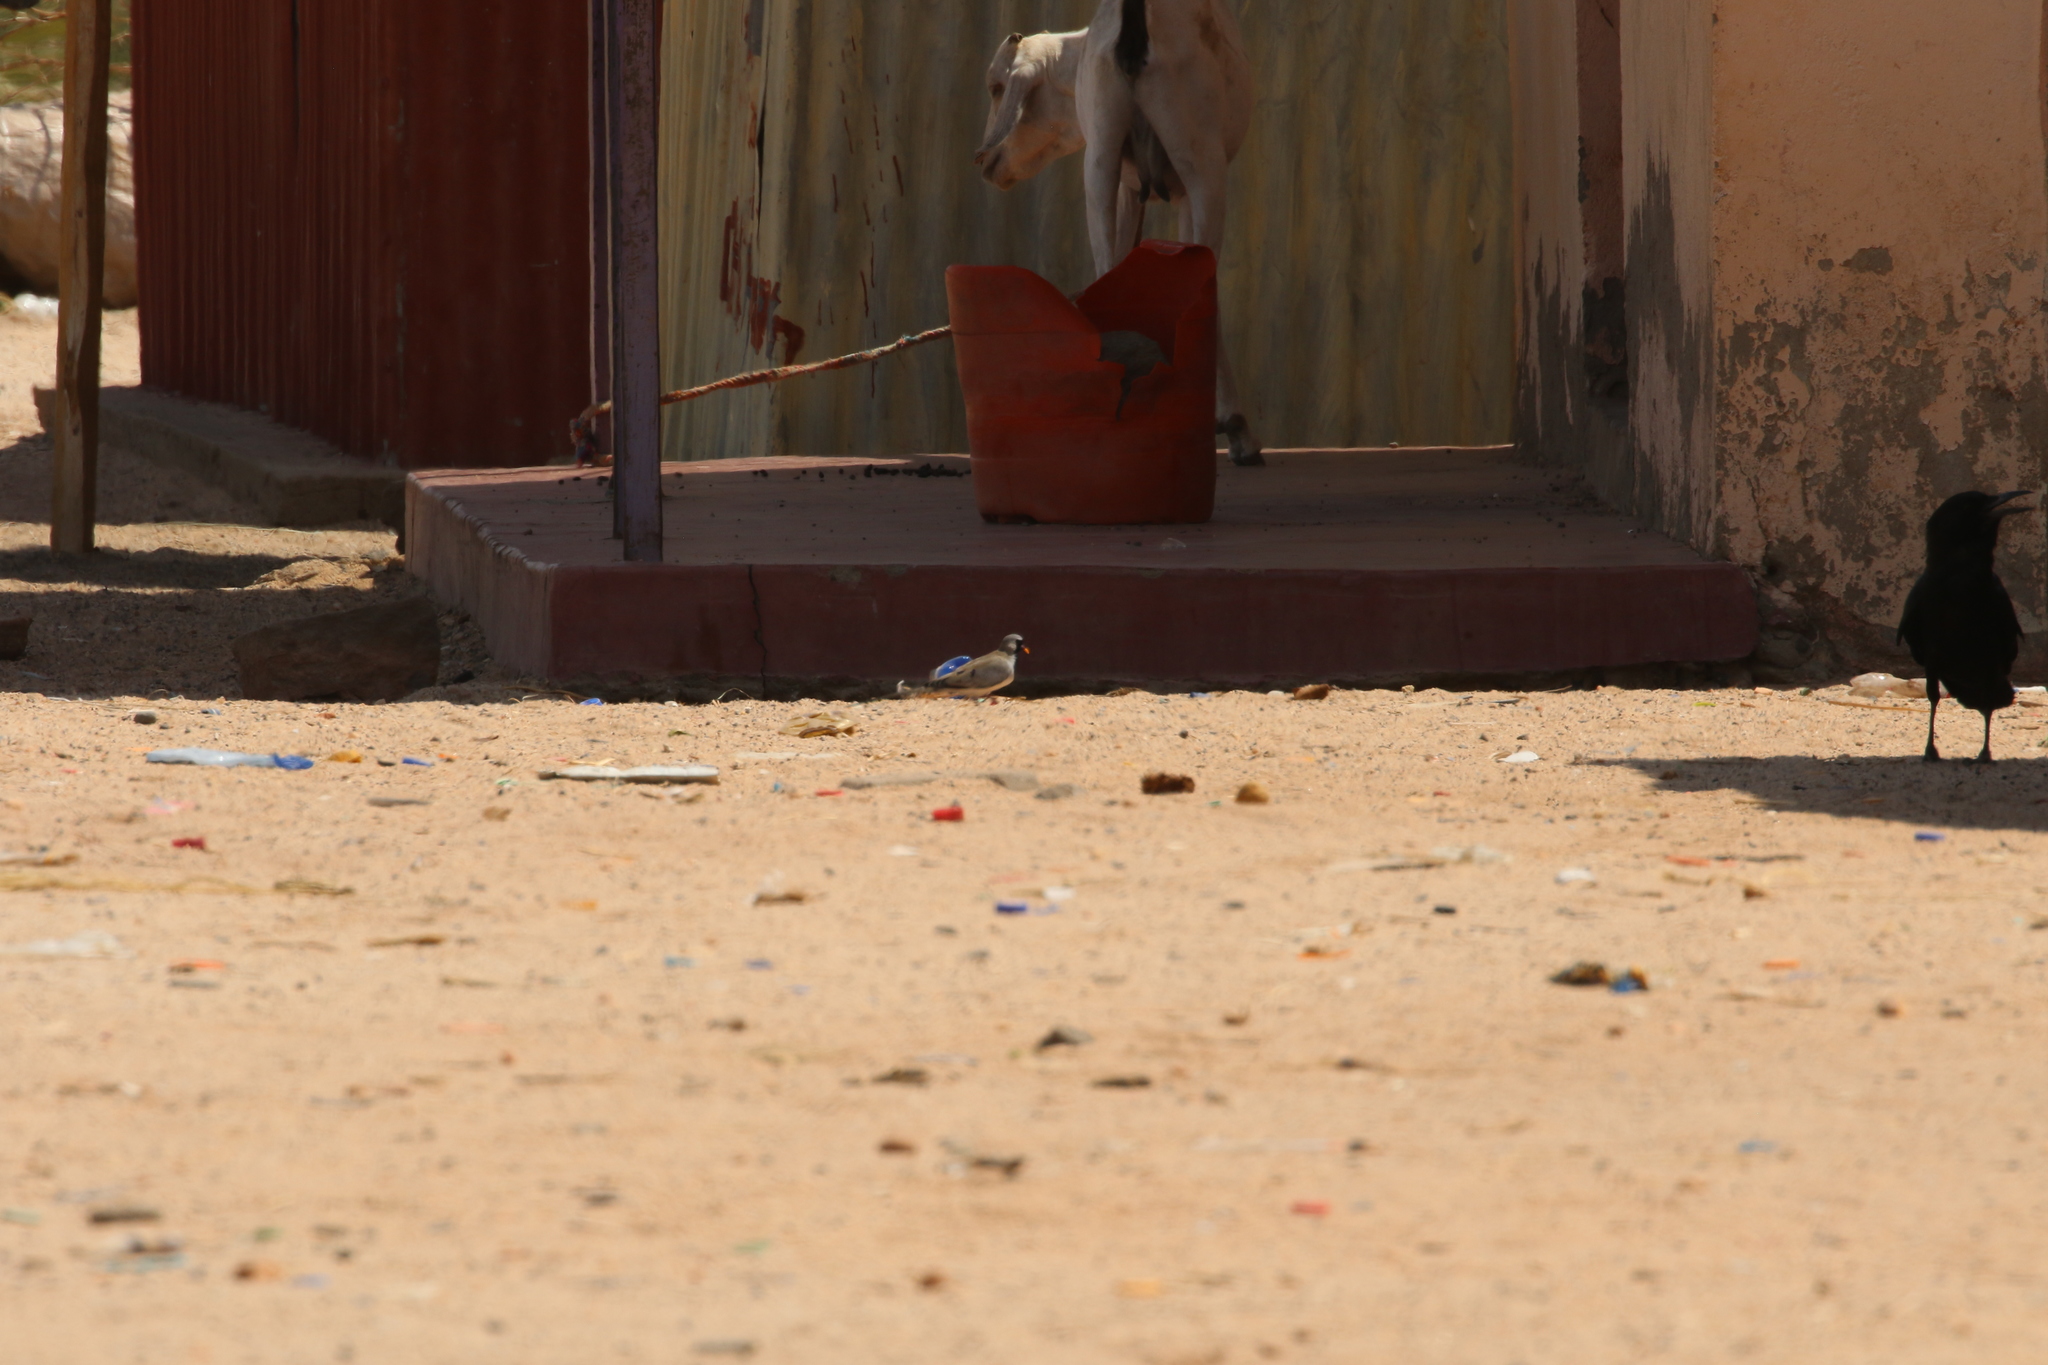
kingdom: Animalia
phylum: Chordata
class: Aves
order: Columbiformes
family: Columbidae
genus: Oena
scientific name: Oena capensis
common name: Namaqua dove
